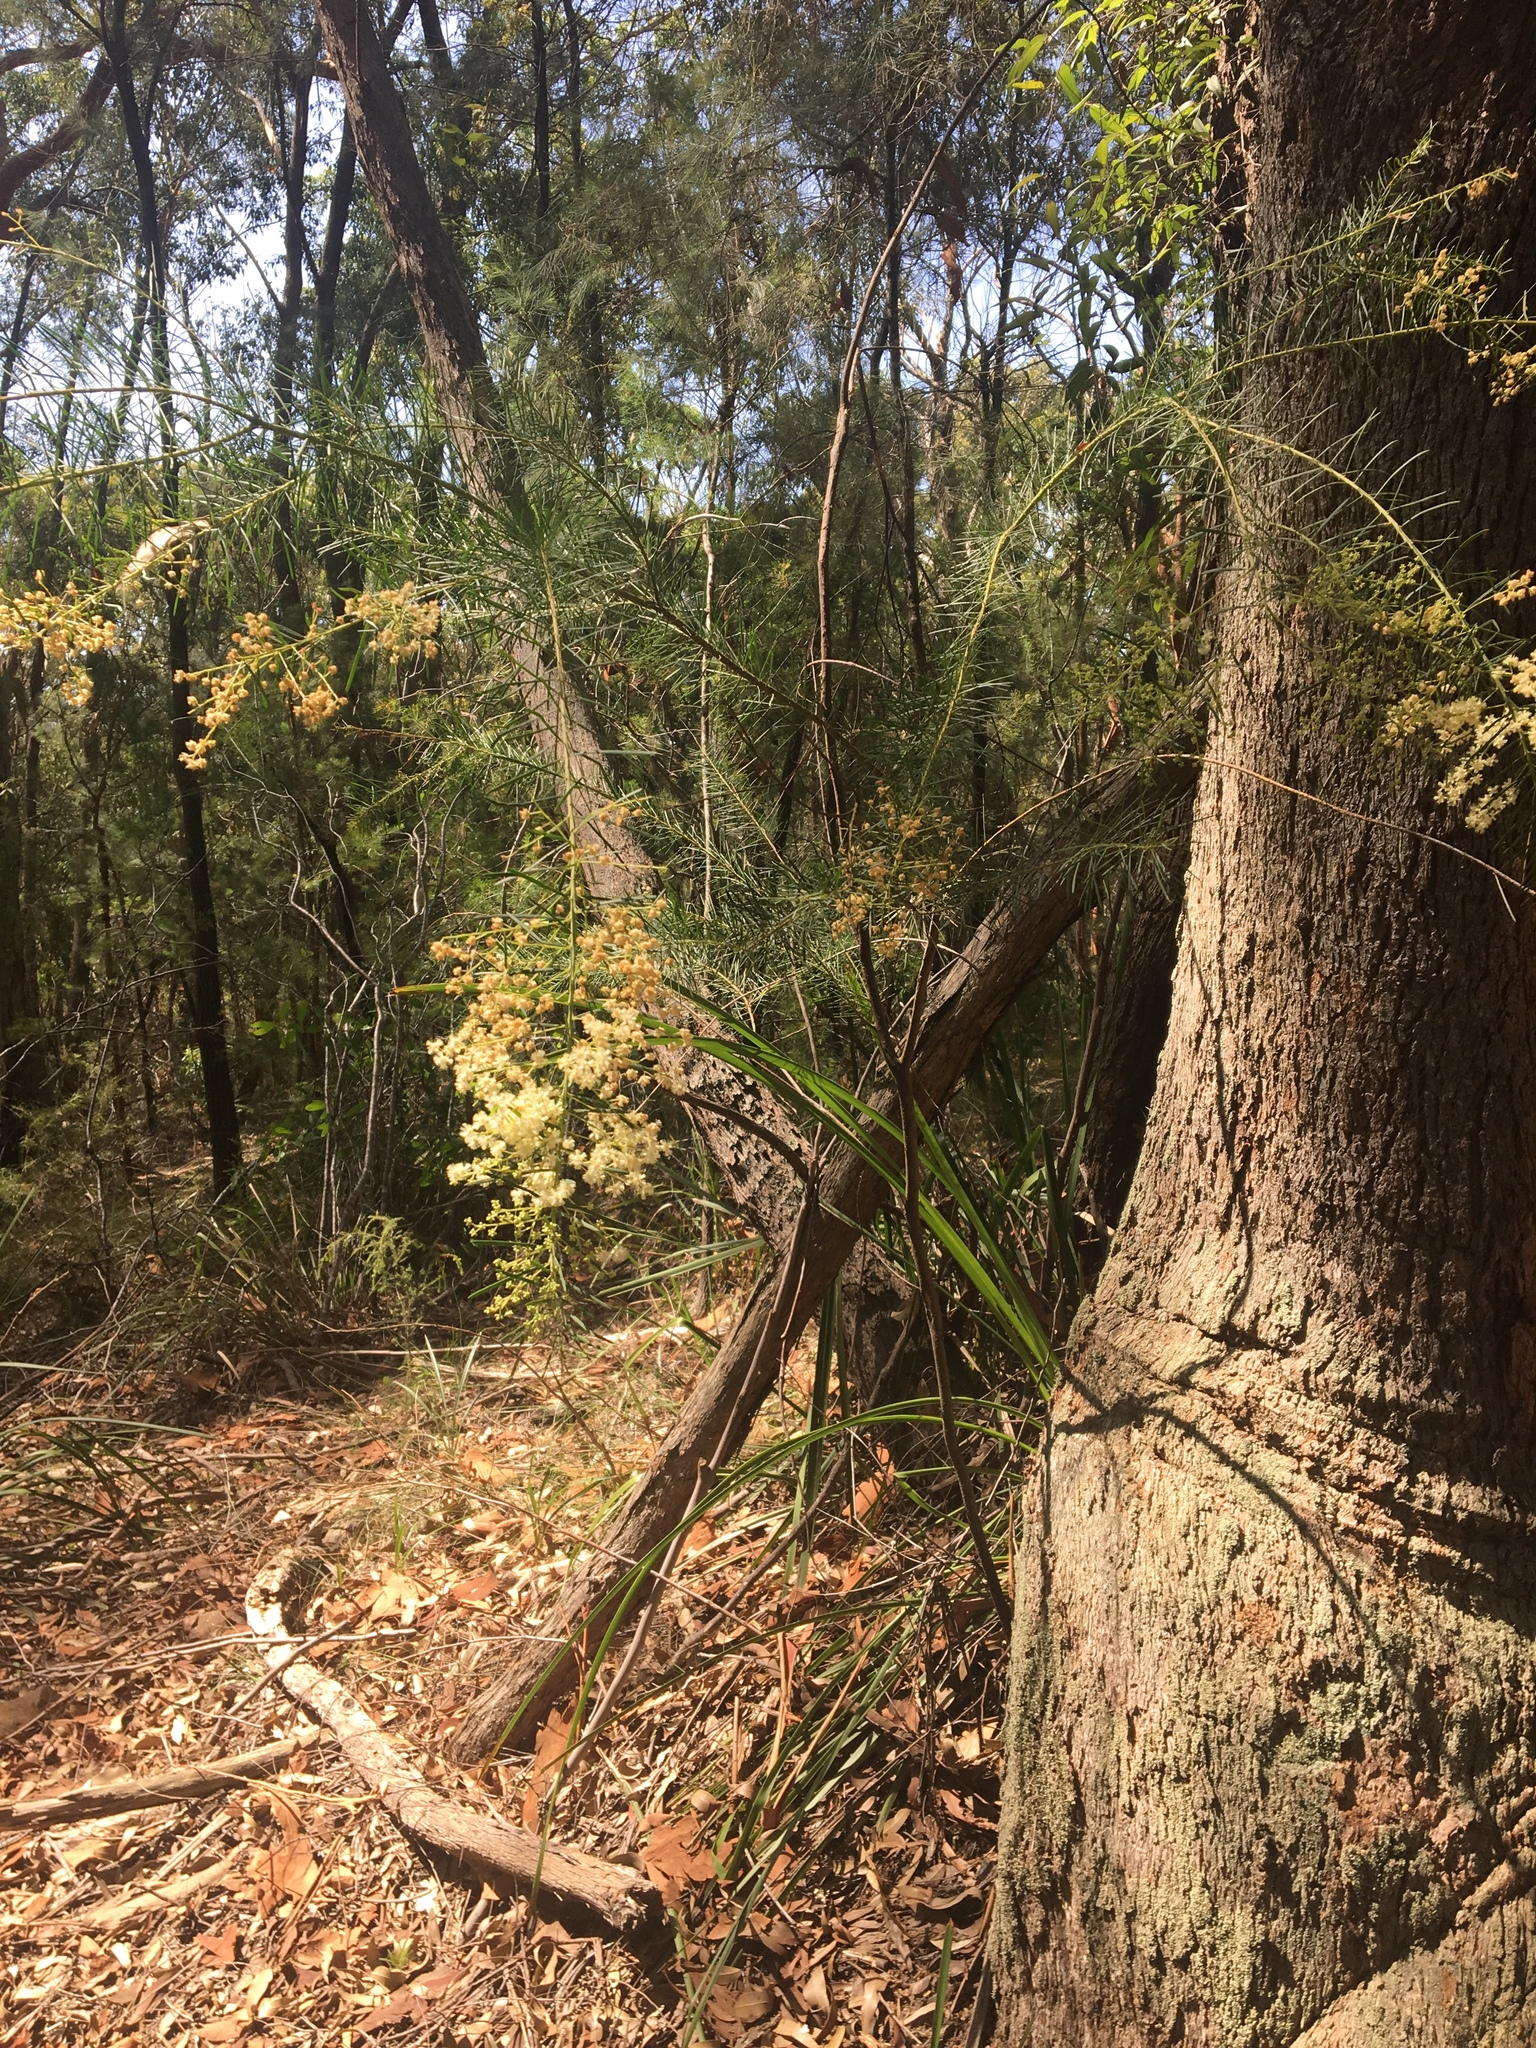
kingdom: Plantae
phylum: Tracheophyta
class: Magnoliopsida
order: Fabales
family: Fabaceae
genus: Acacia
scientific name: Acacia linifolia
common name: White wattle
